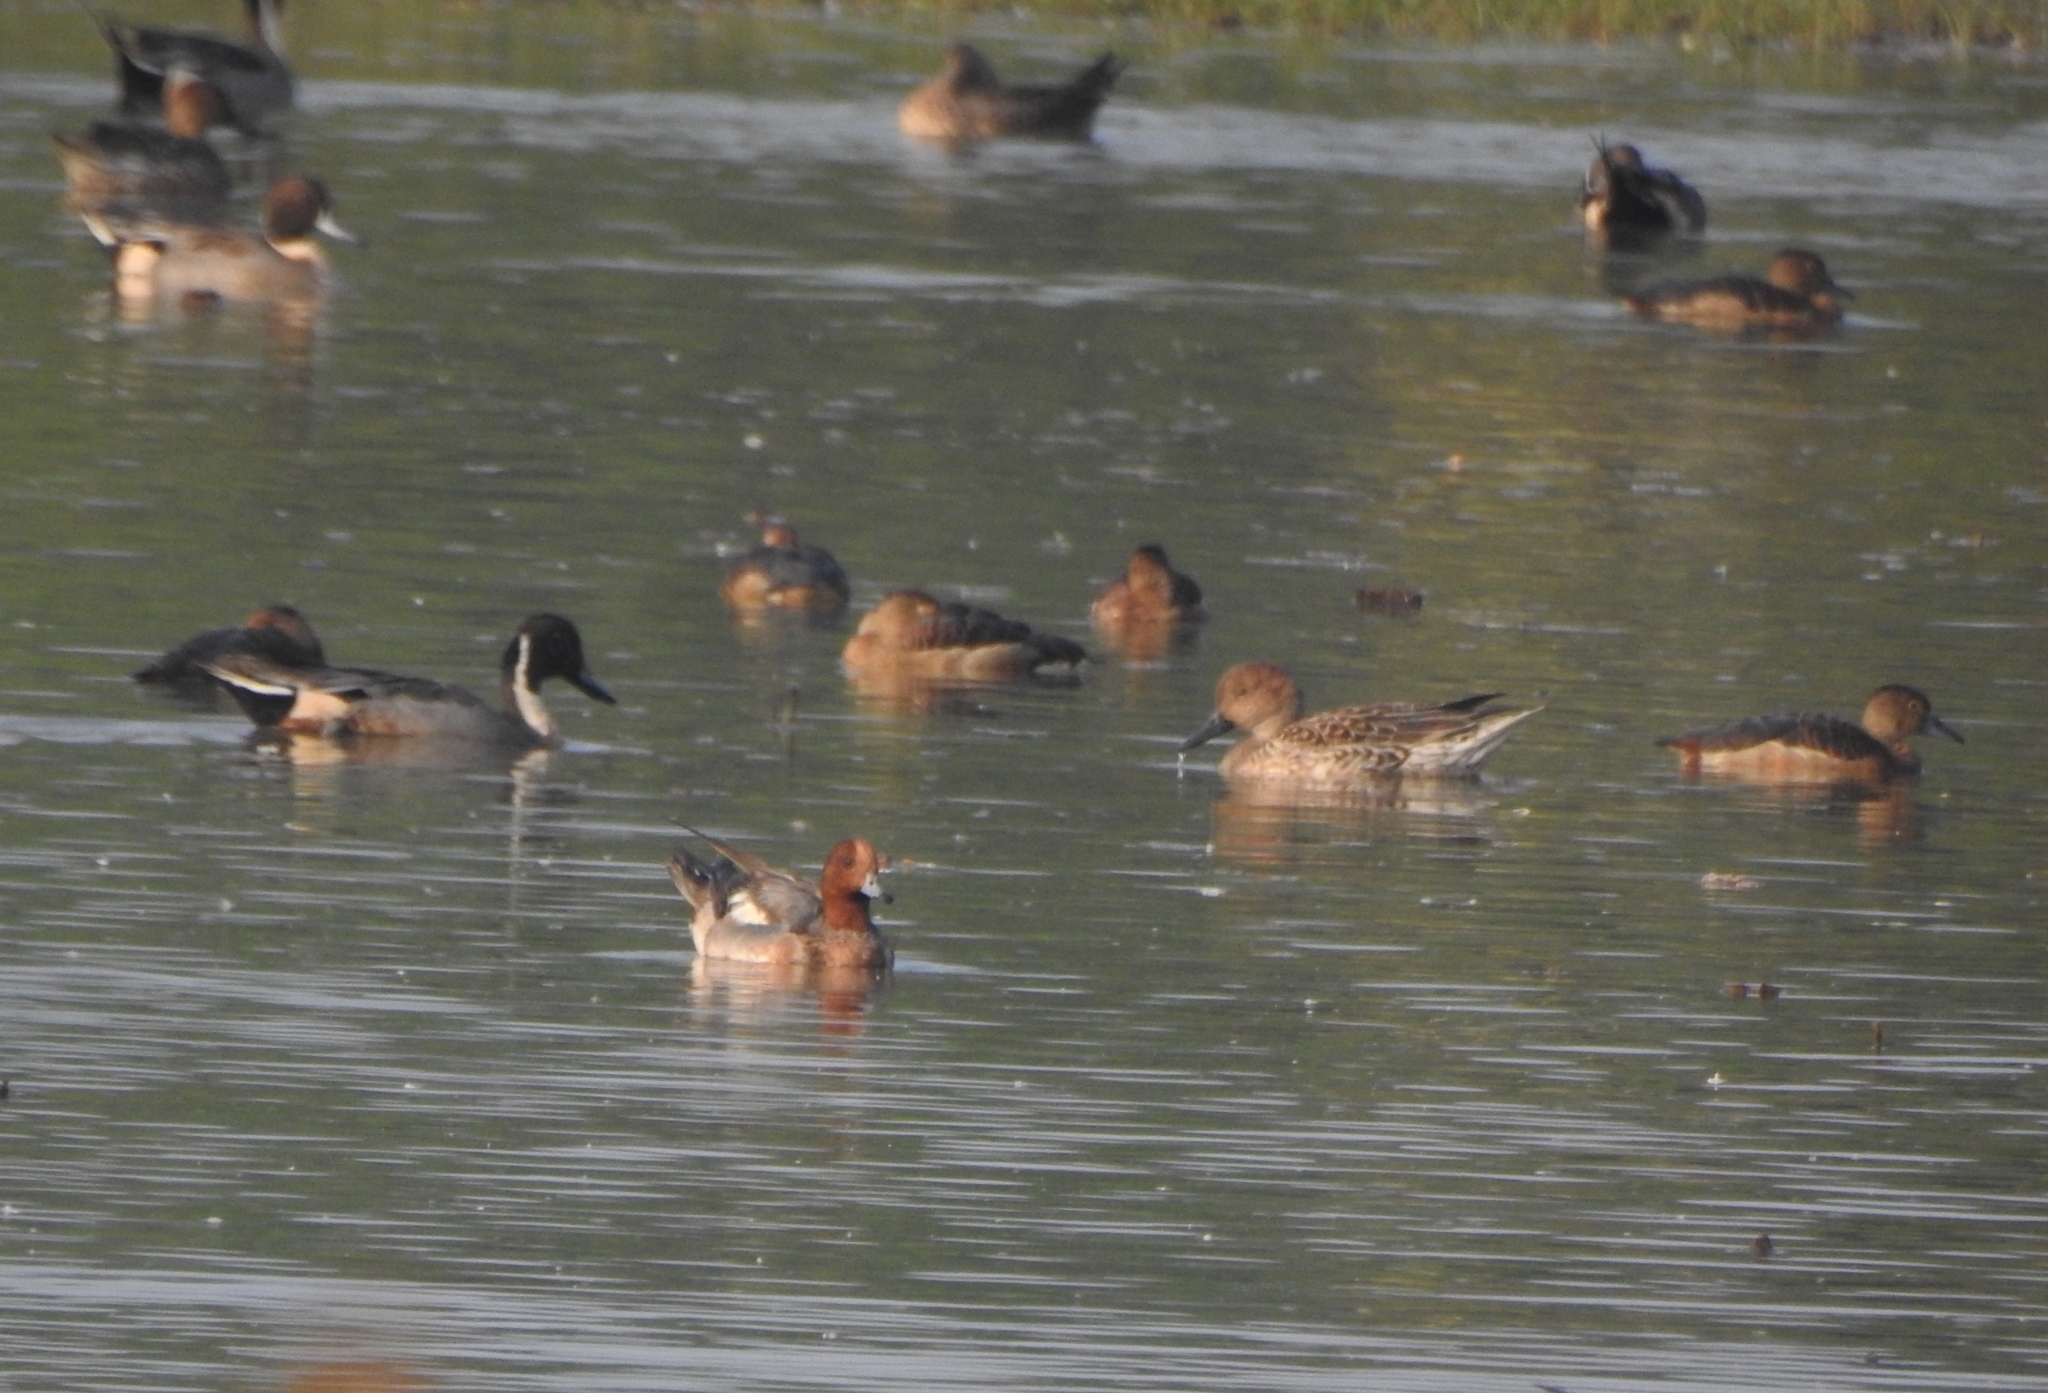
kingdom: Animalia
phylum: Chordata
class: Aves
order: Anseriformes
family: Anatidae
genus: Anas
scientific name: Anas acuta
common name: Northern pintail
